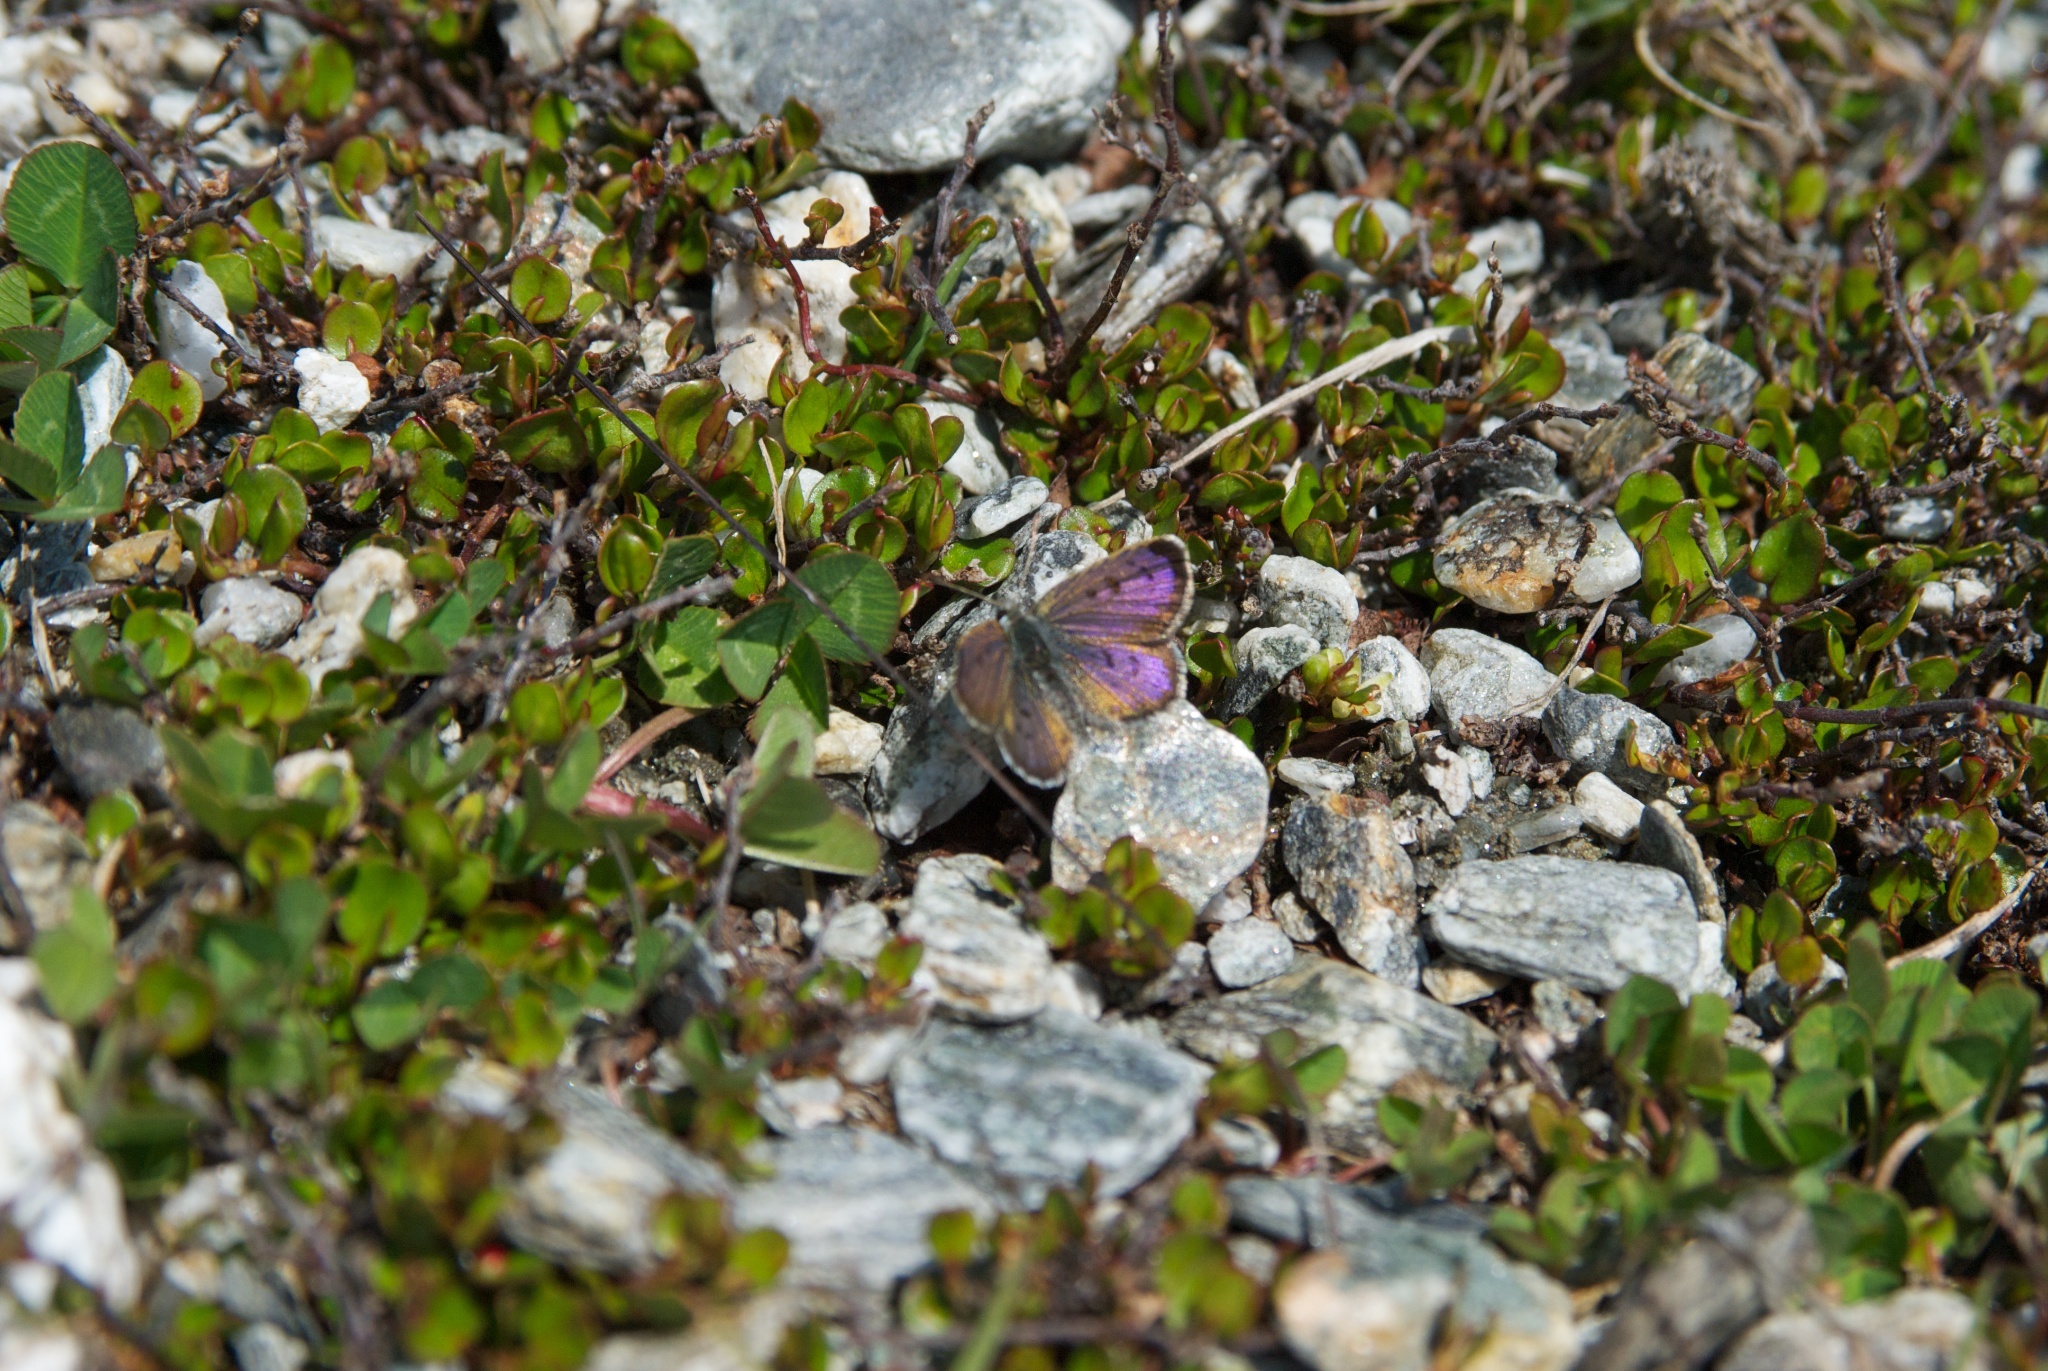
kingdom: Plantae
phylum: Tracheophyta
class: Magnoliopsida
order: Caryophyllales
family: Polygonaceae
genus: Muehlenbeckia
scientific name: Muehlenbeckia axillaris
